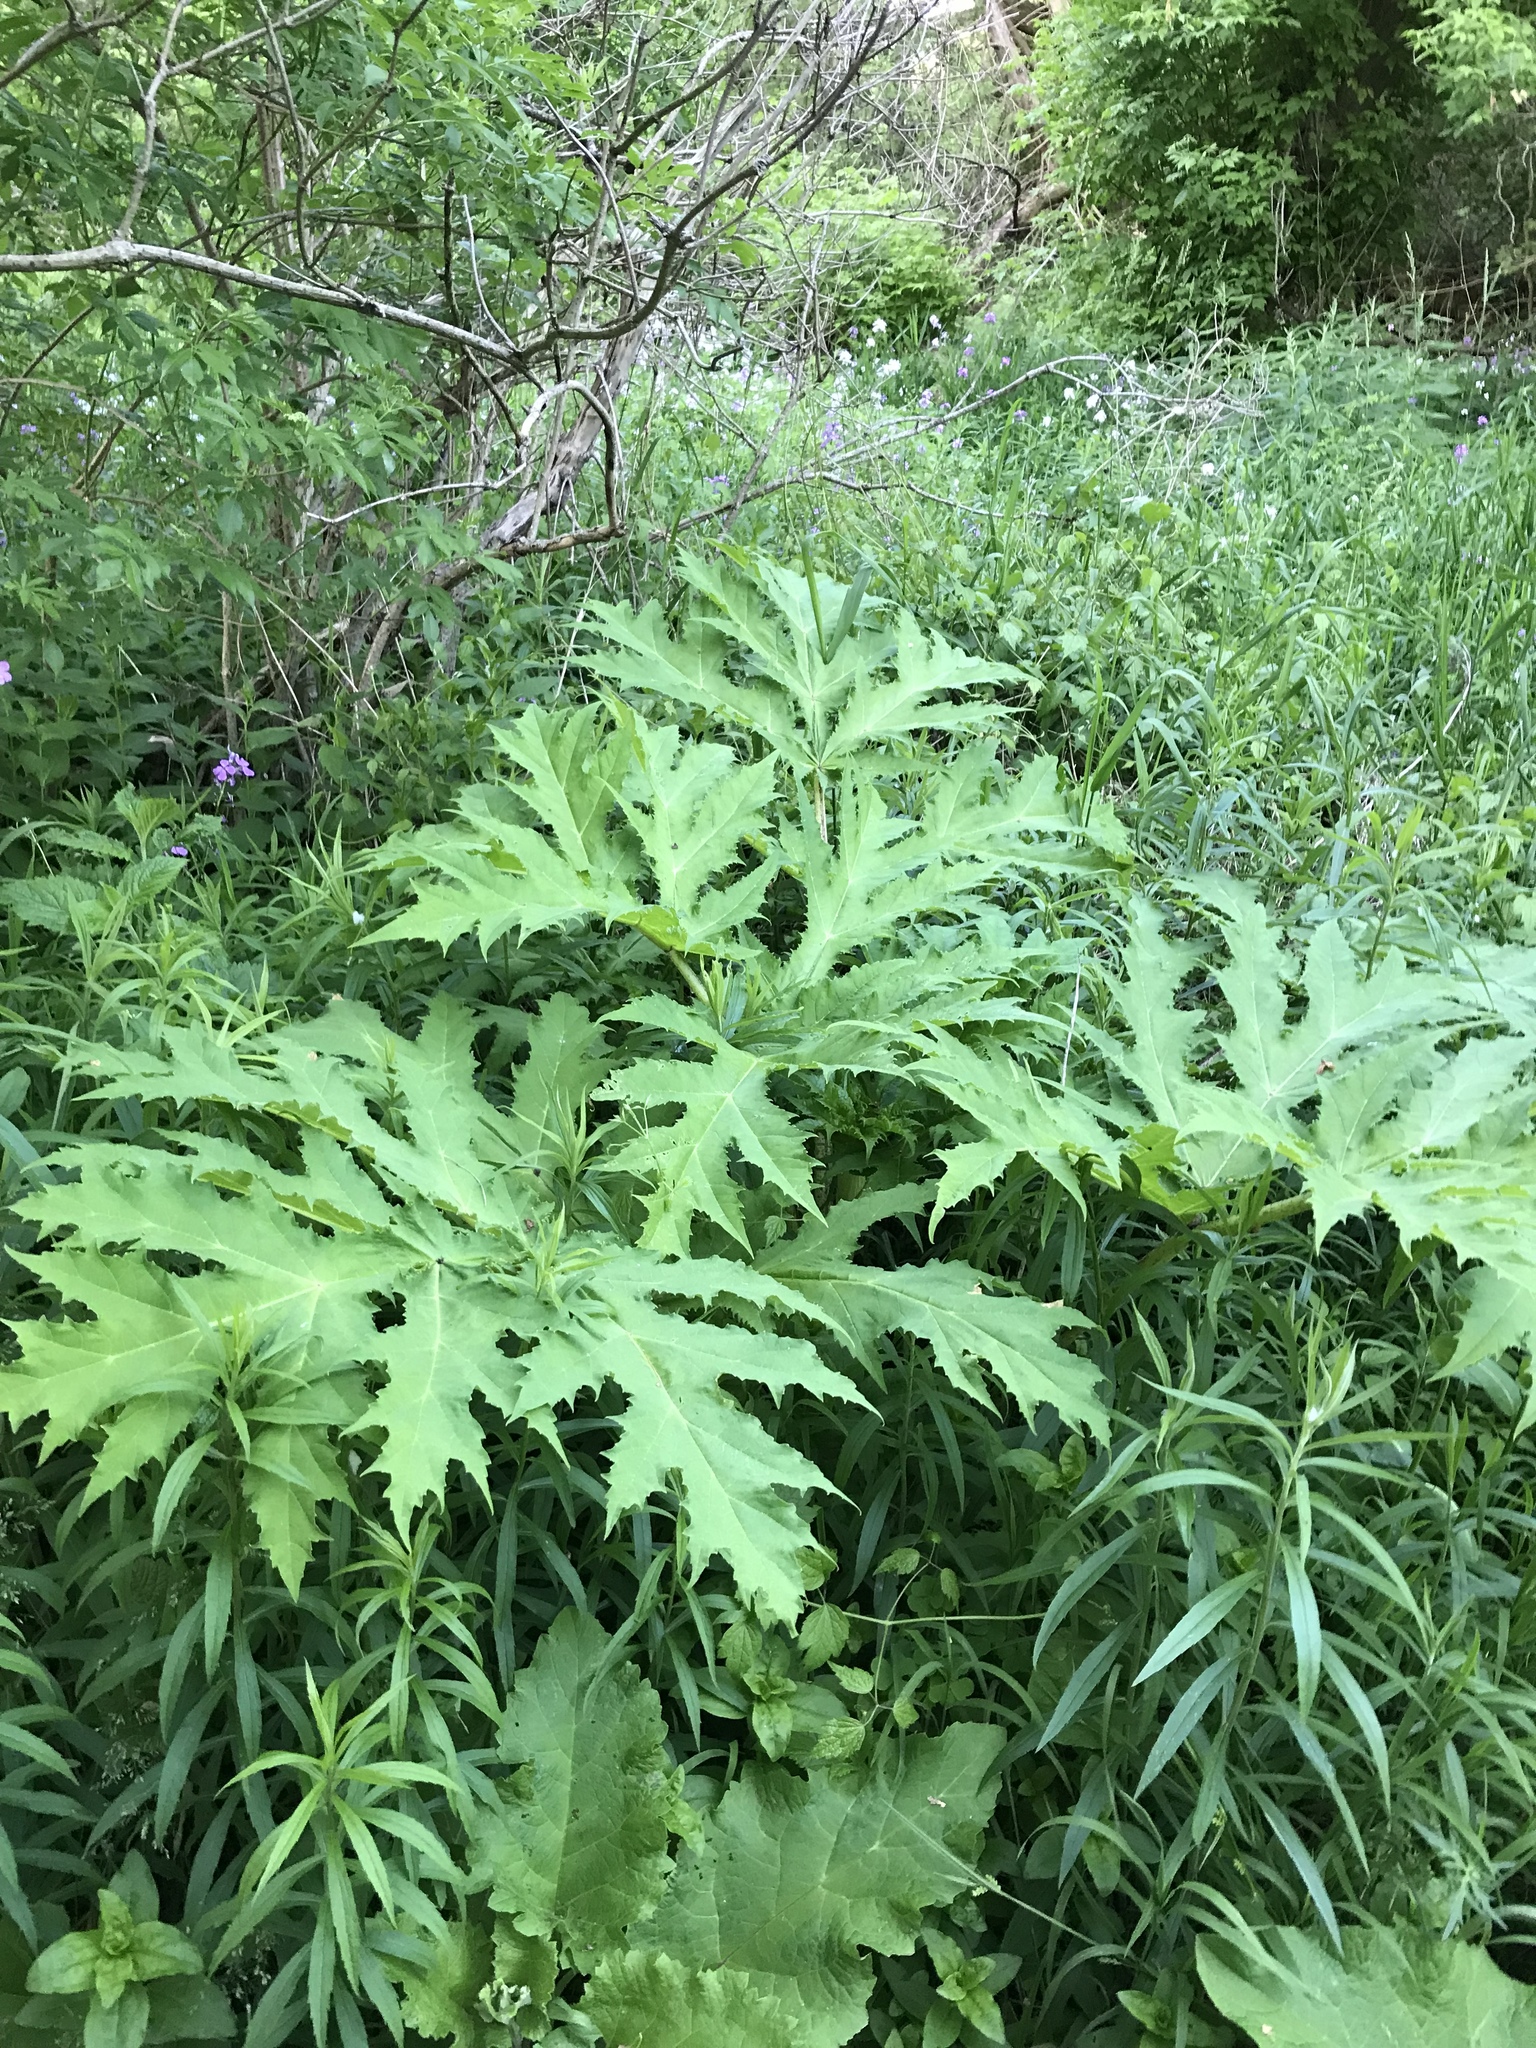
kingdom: Plantae
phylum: Tracheophyta
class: Magnoliopsida
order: Apiales
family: Apiaceae
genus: Heracleum
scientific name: Heracleum mantegazzianum
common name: Giant hogweed
